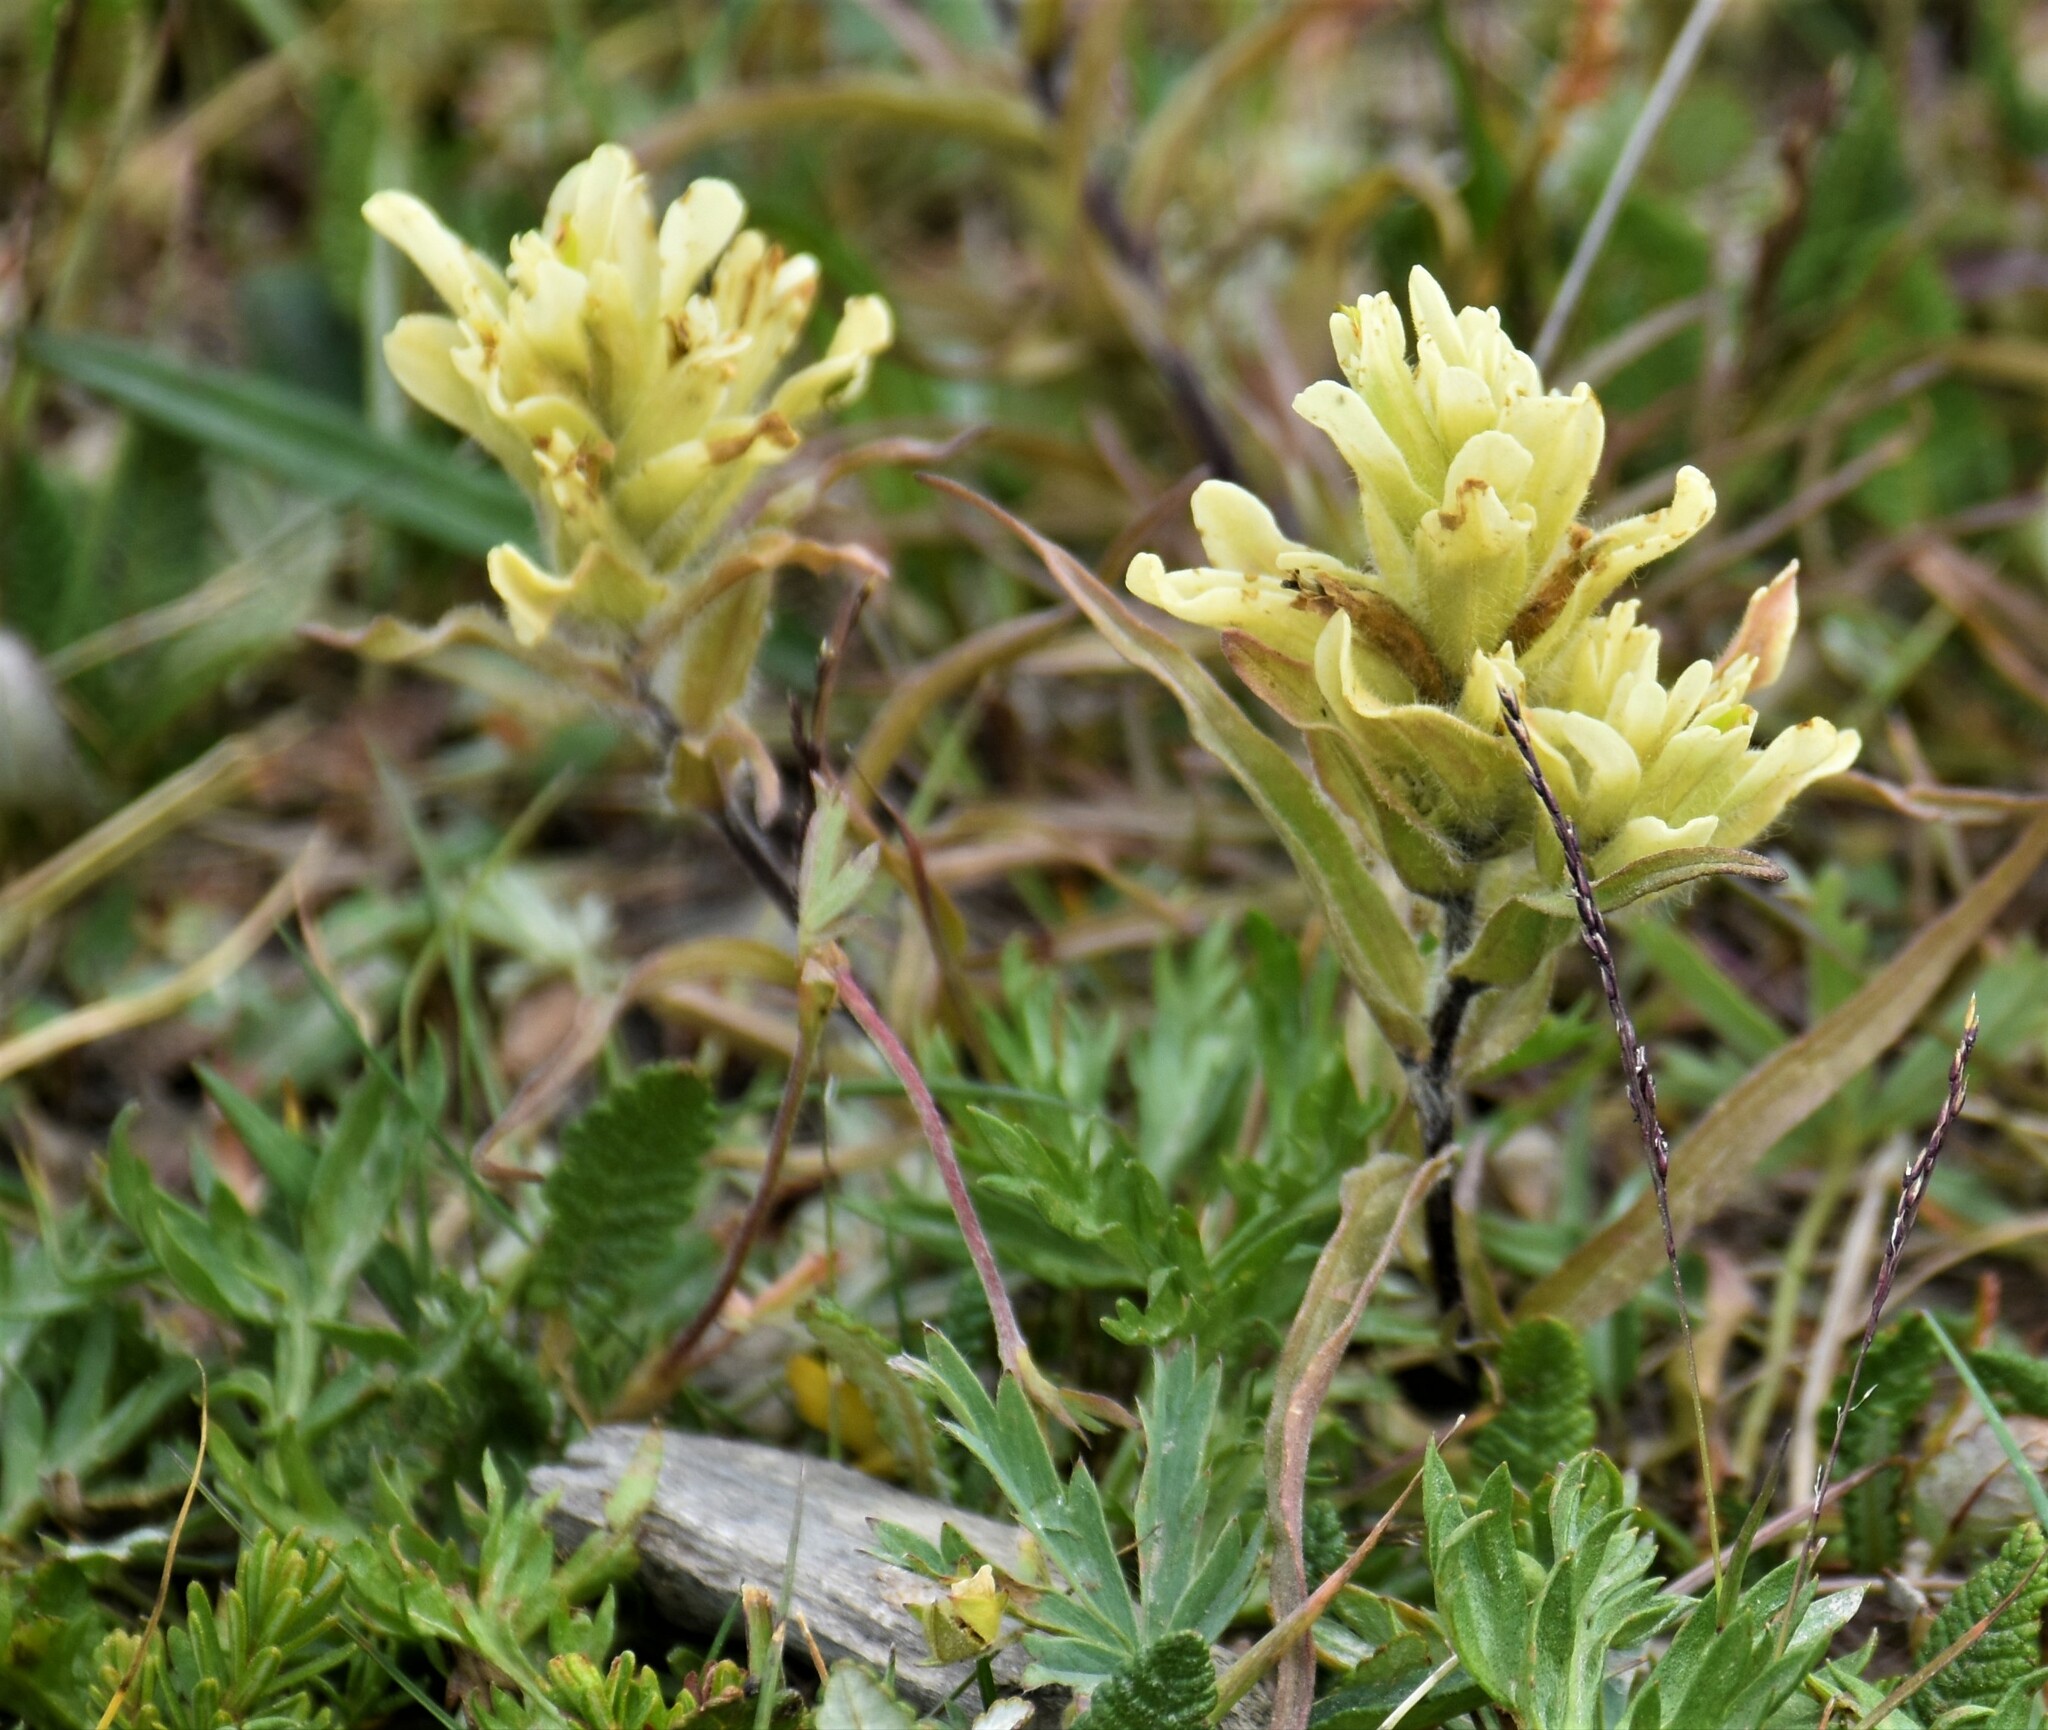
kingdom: Plantae
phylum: Tracheophyta
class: Magnoliopsida
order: Lamiales
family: Orobanchaceae
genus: Castilleja
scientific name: Castilleja occidentalis
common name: Western paintbrush
